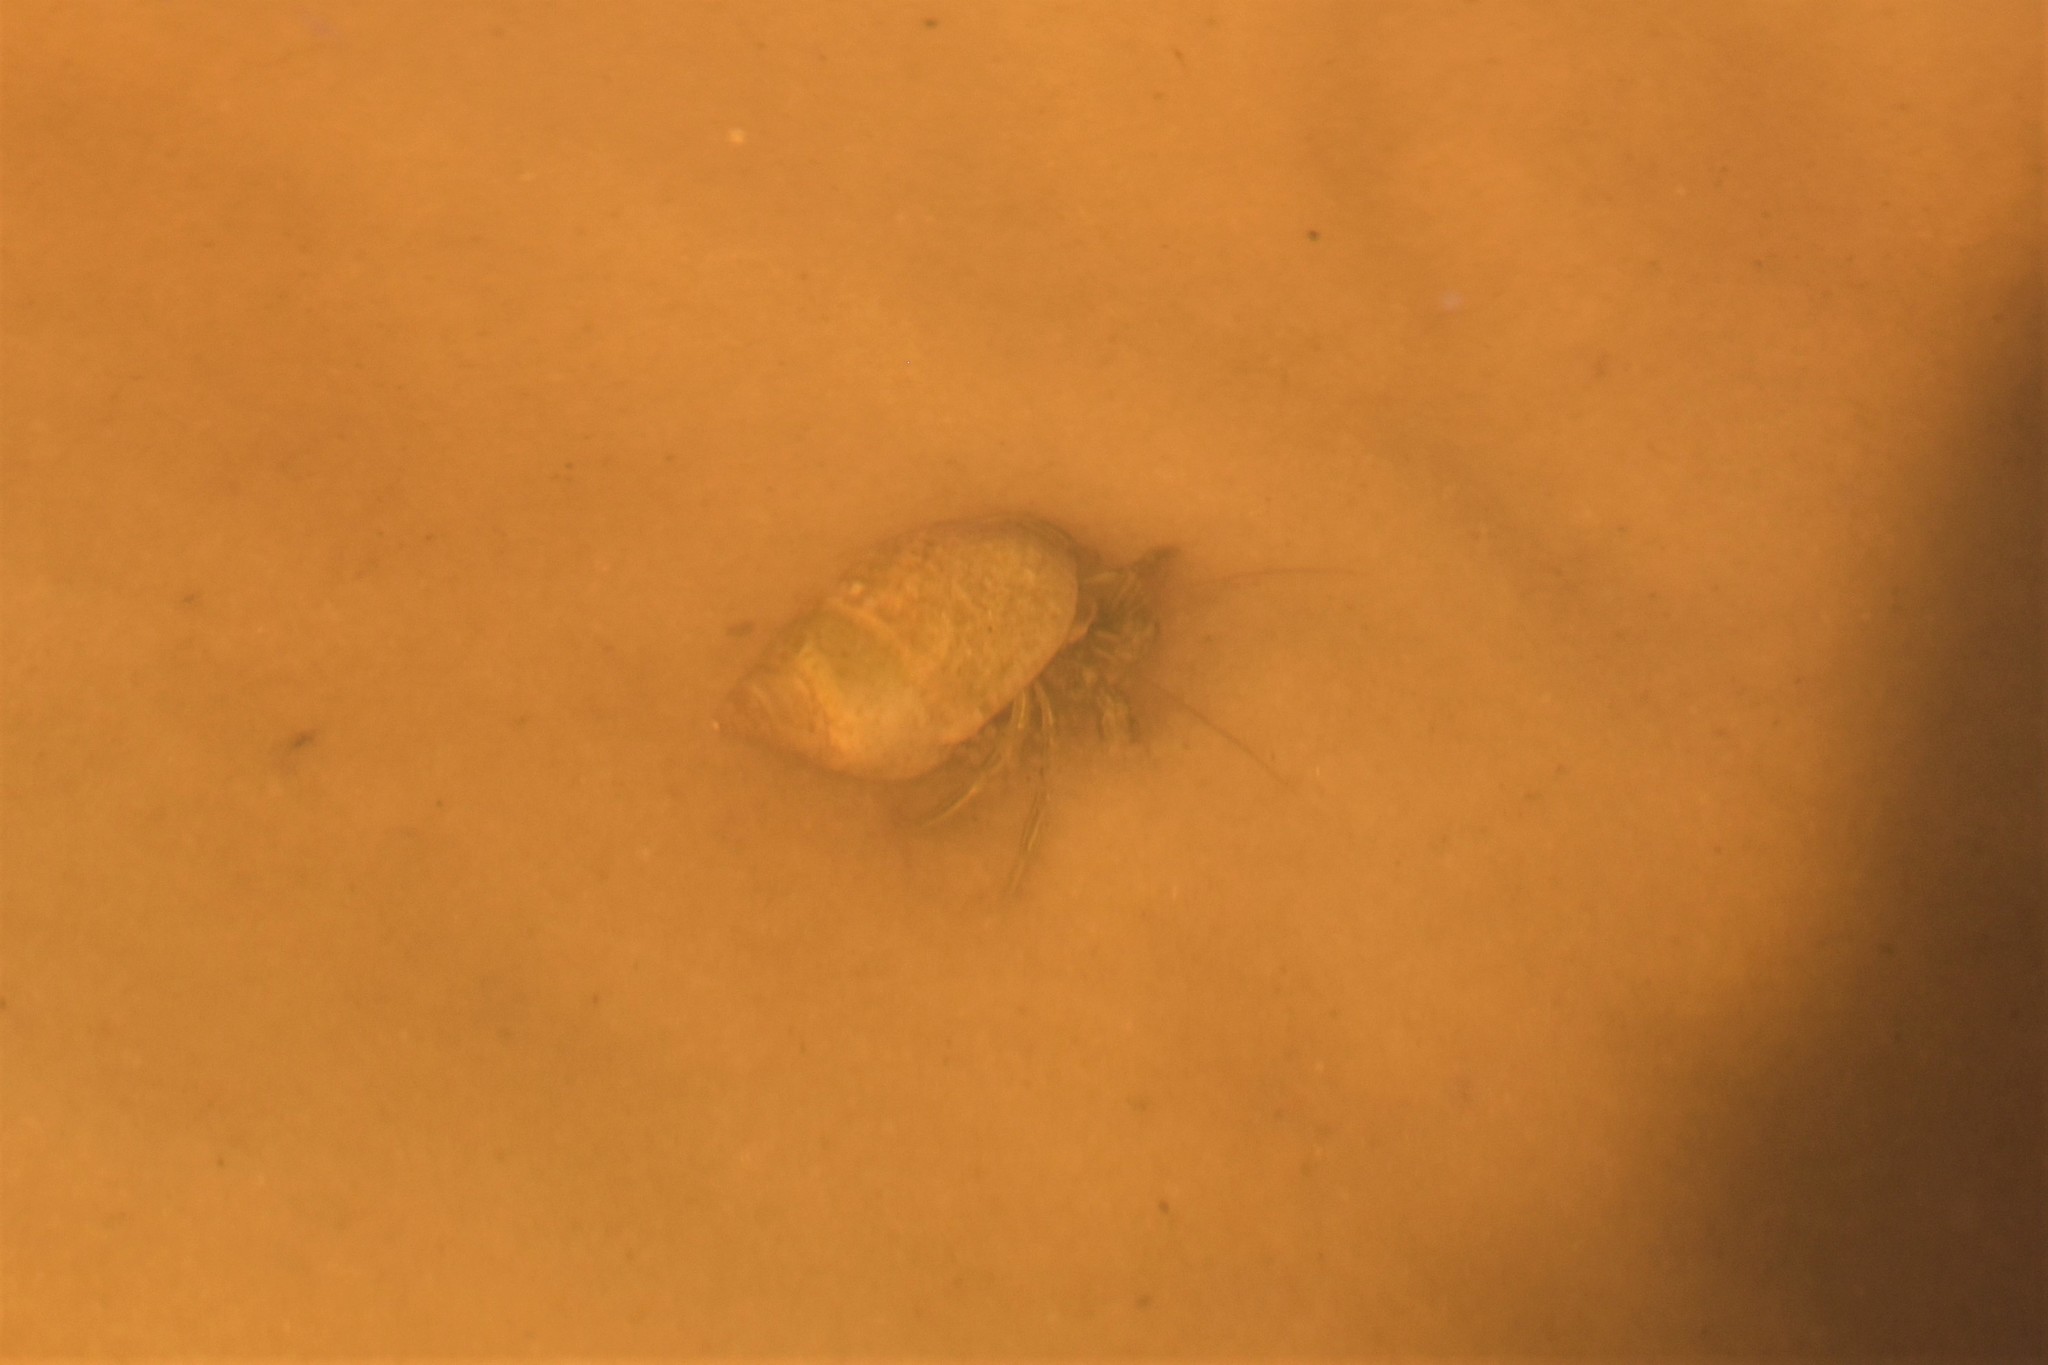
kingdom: Animalia
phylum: Arthropoda
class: Malacostraca
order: Decapoda
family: Diogenidae
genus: Clibanarius
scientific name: Clibanarius vittatus
